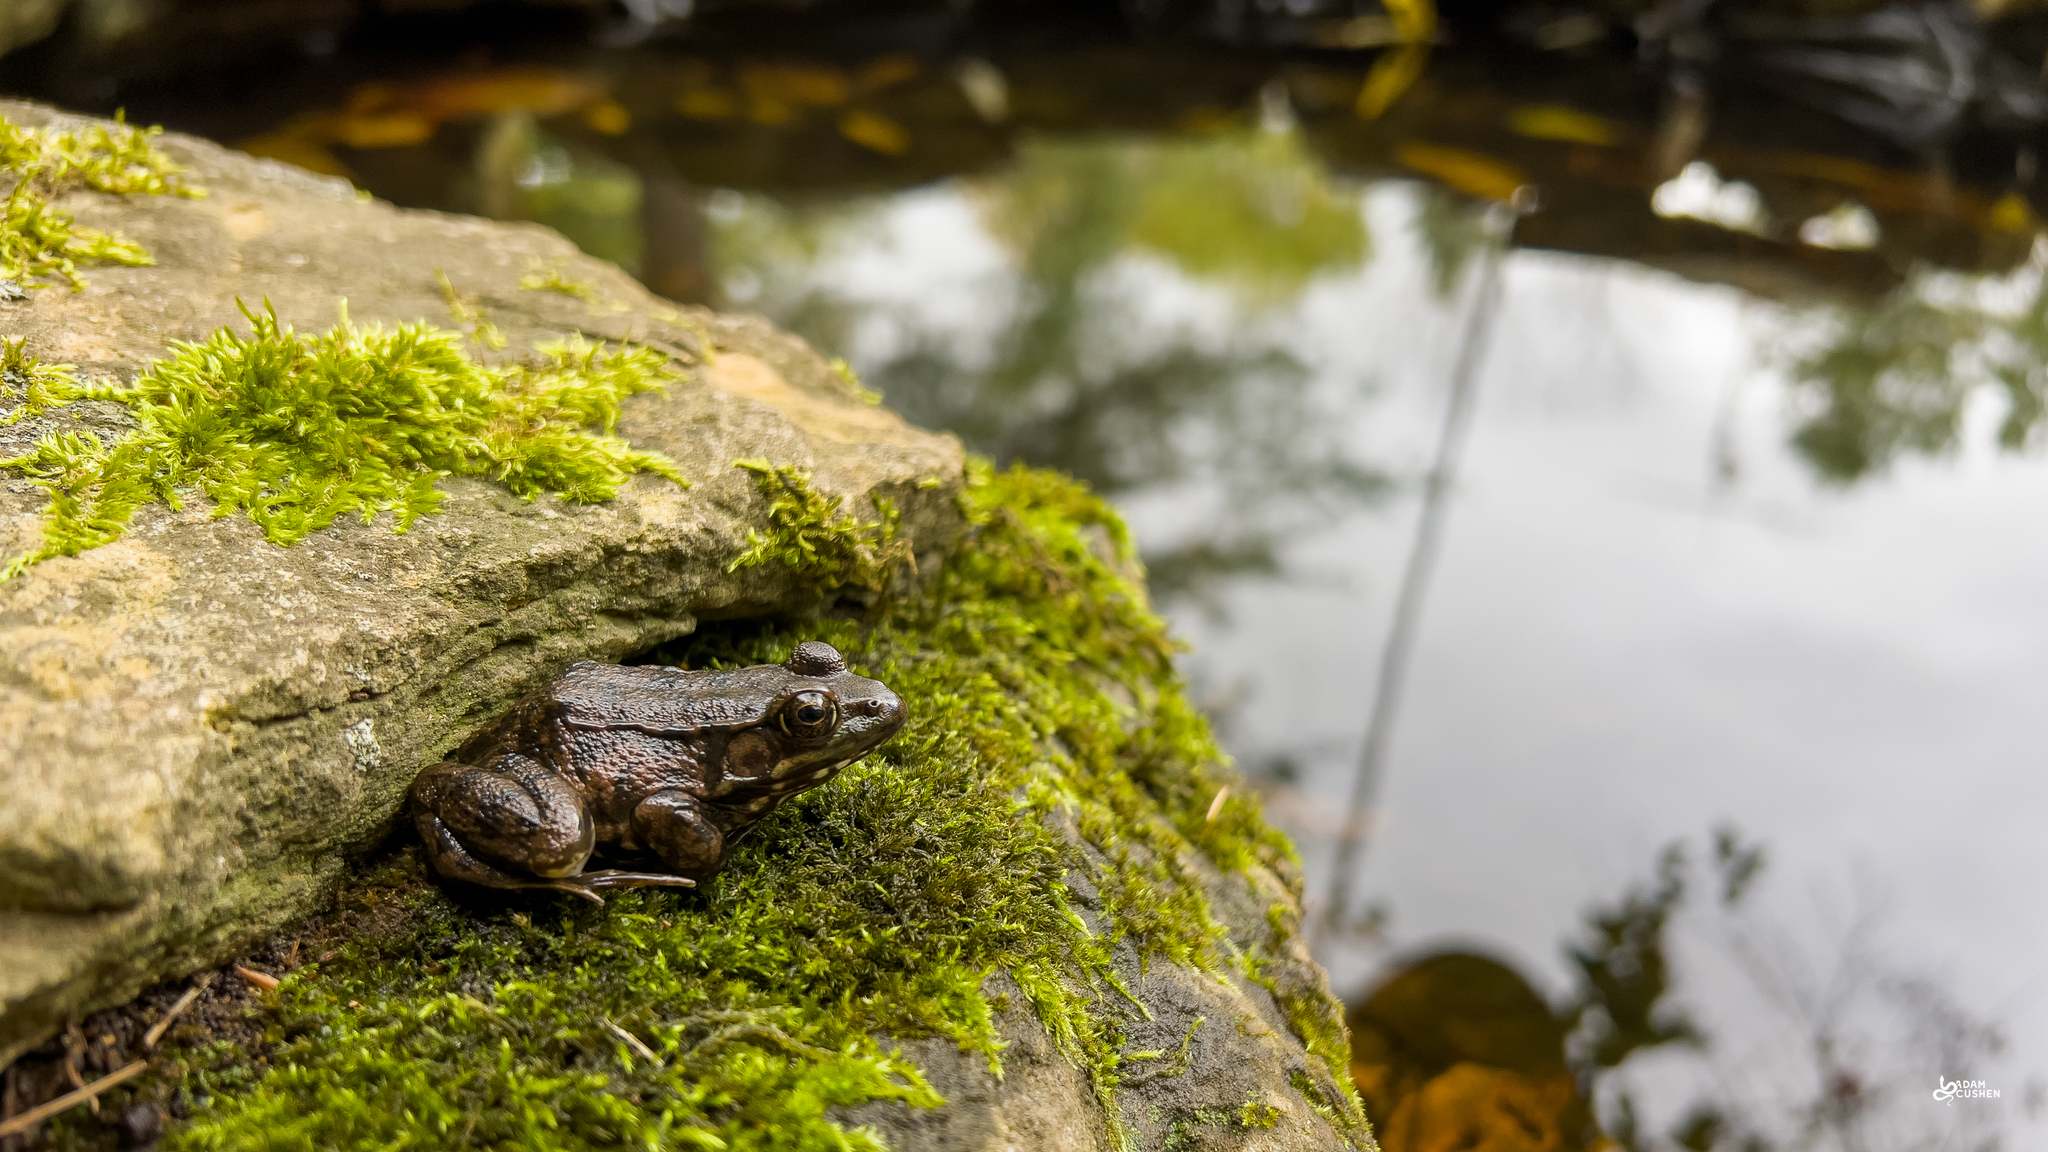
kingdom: Animalia
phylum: Chordata
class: Amphibia
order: Anura
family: Ranidae
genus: Lithobates
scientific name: Lithobates clamitans
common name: Green frog
